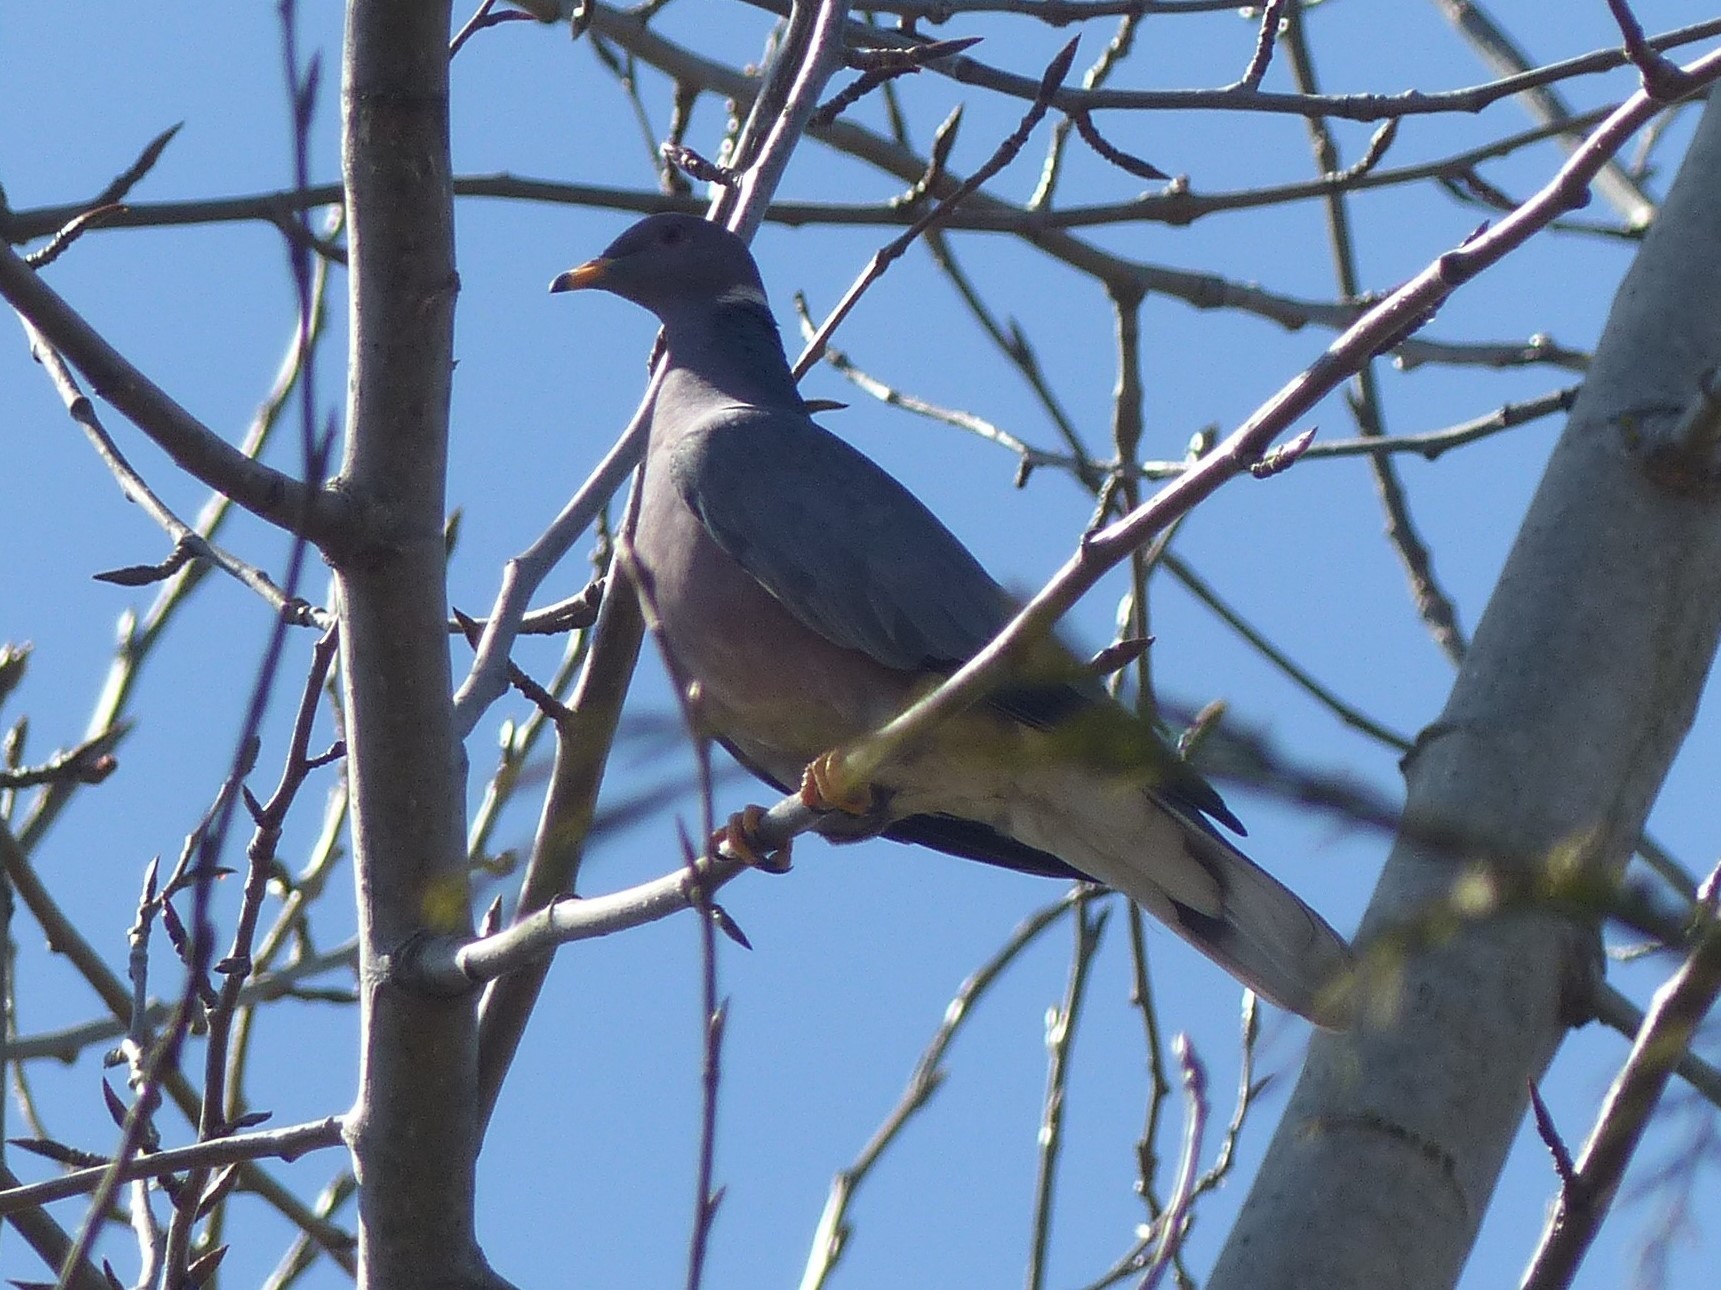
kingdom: Animalia
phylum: Chordata
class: Aves
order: Columbiformes
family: Columbidae
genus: Patagioenas
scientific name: Patagioenas fasciata
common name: Band-tailed pigeon
